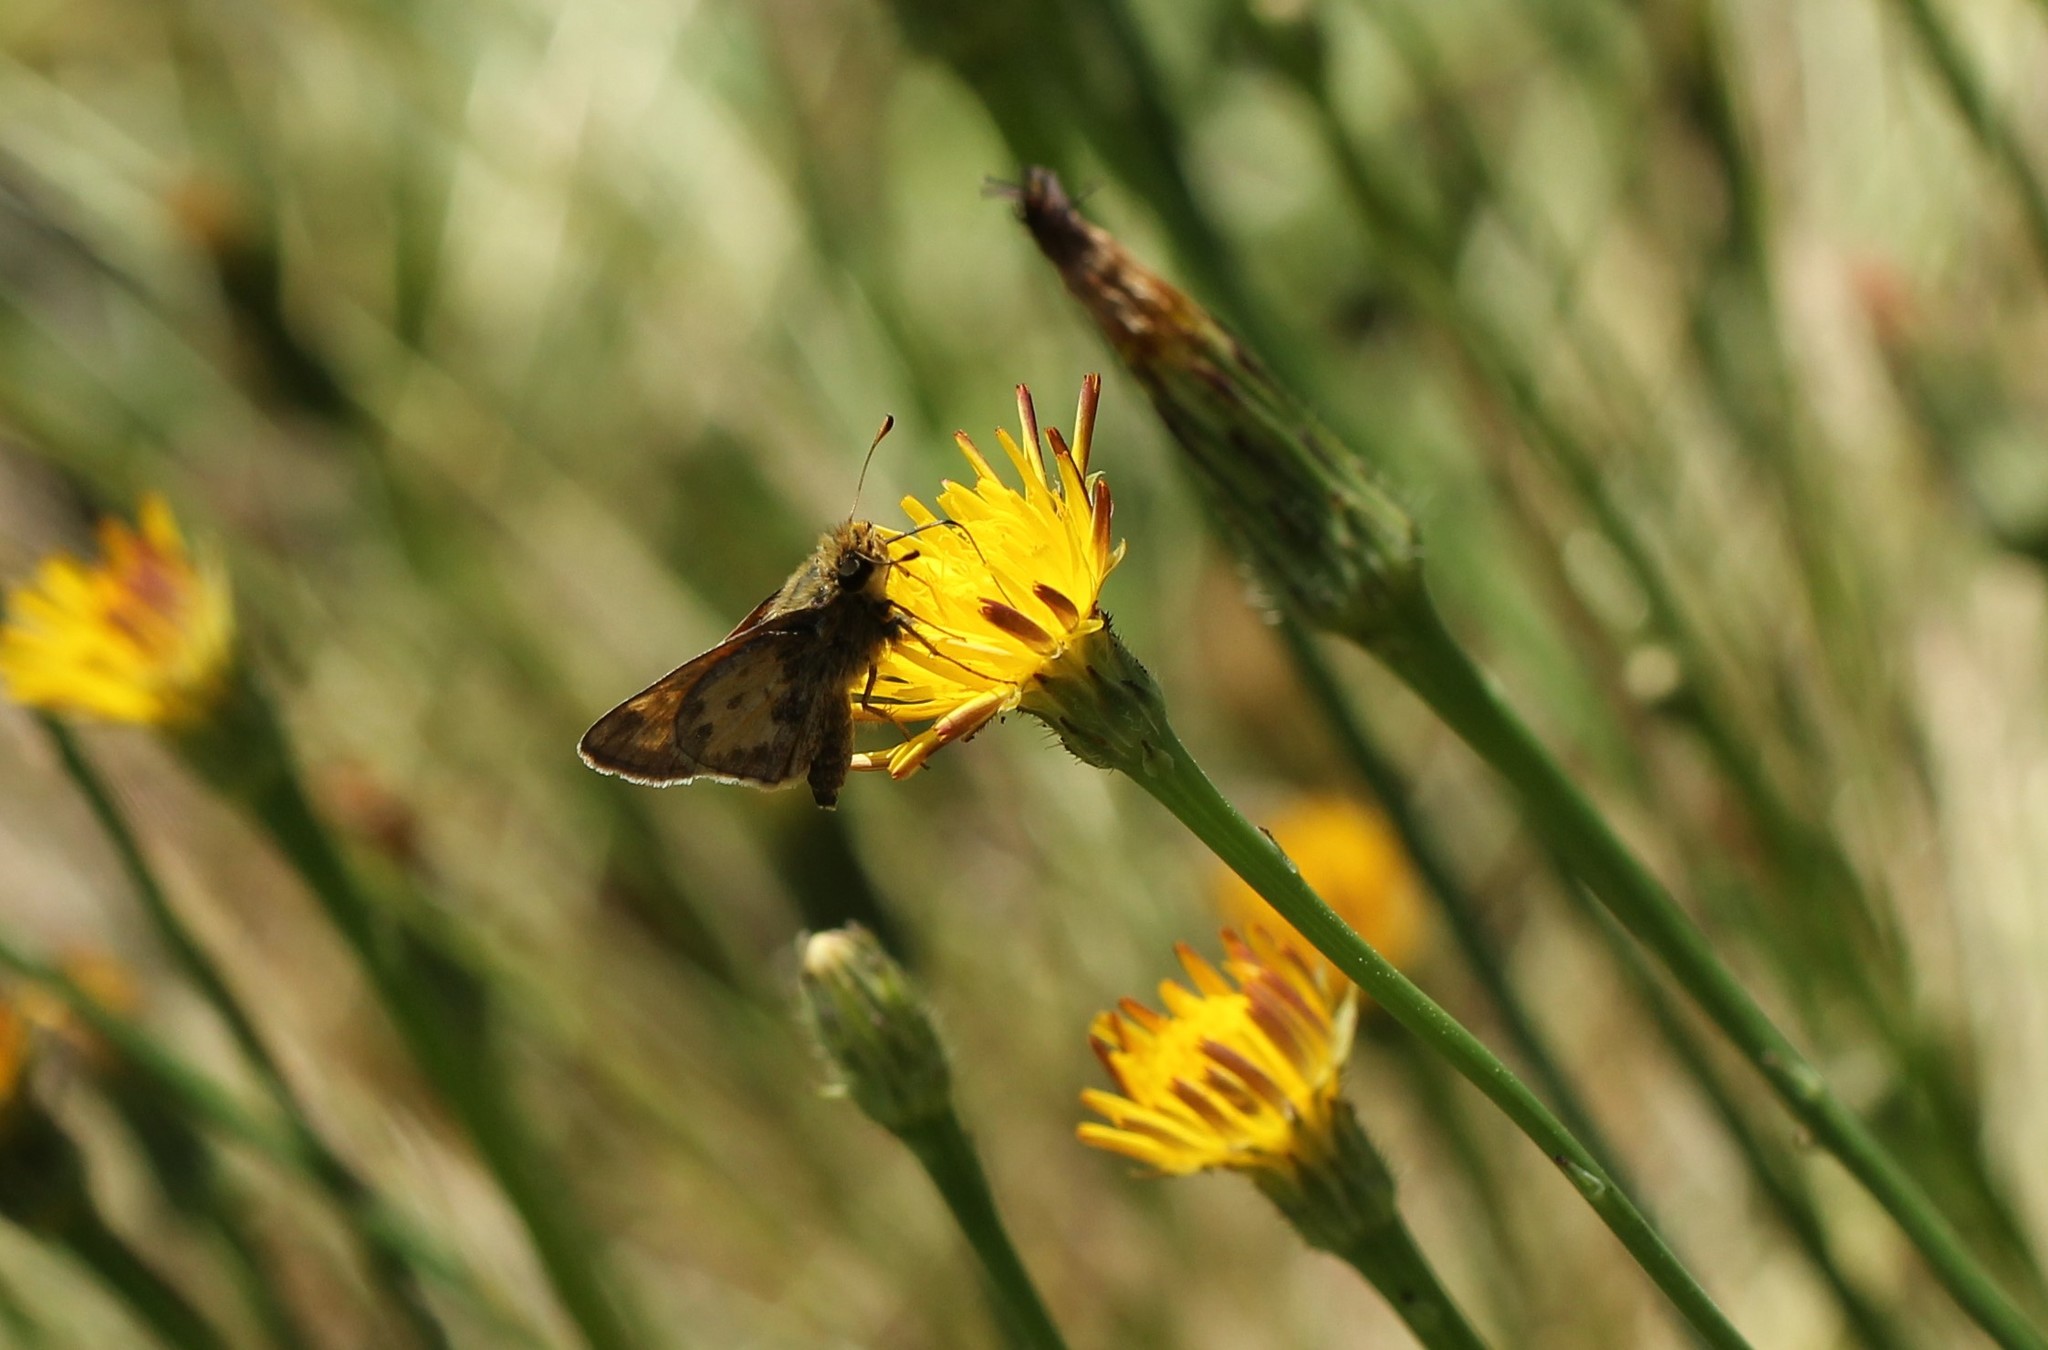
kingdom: Animalia
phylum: Arthropoda
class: Insecta
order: Lepidoptera
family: Hesperiidae
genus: Atalopedes
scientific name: Atalopedes
